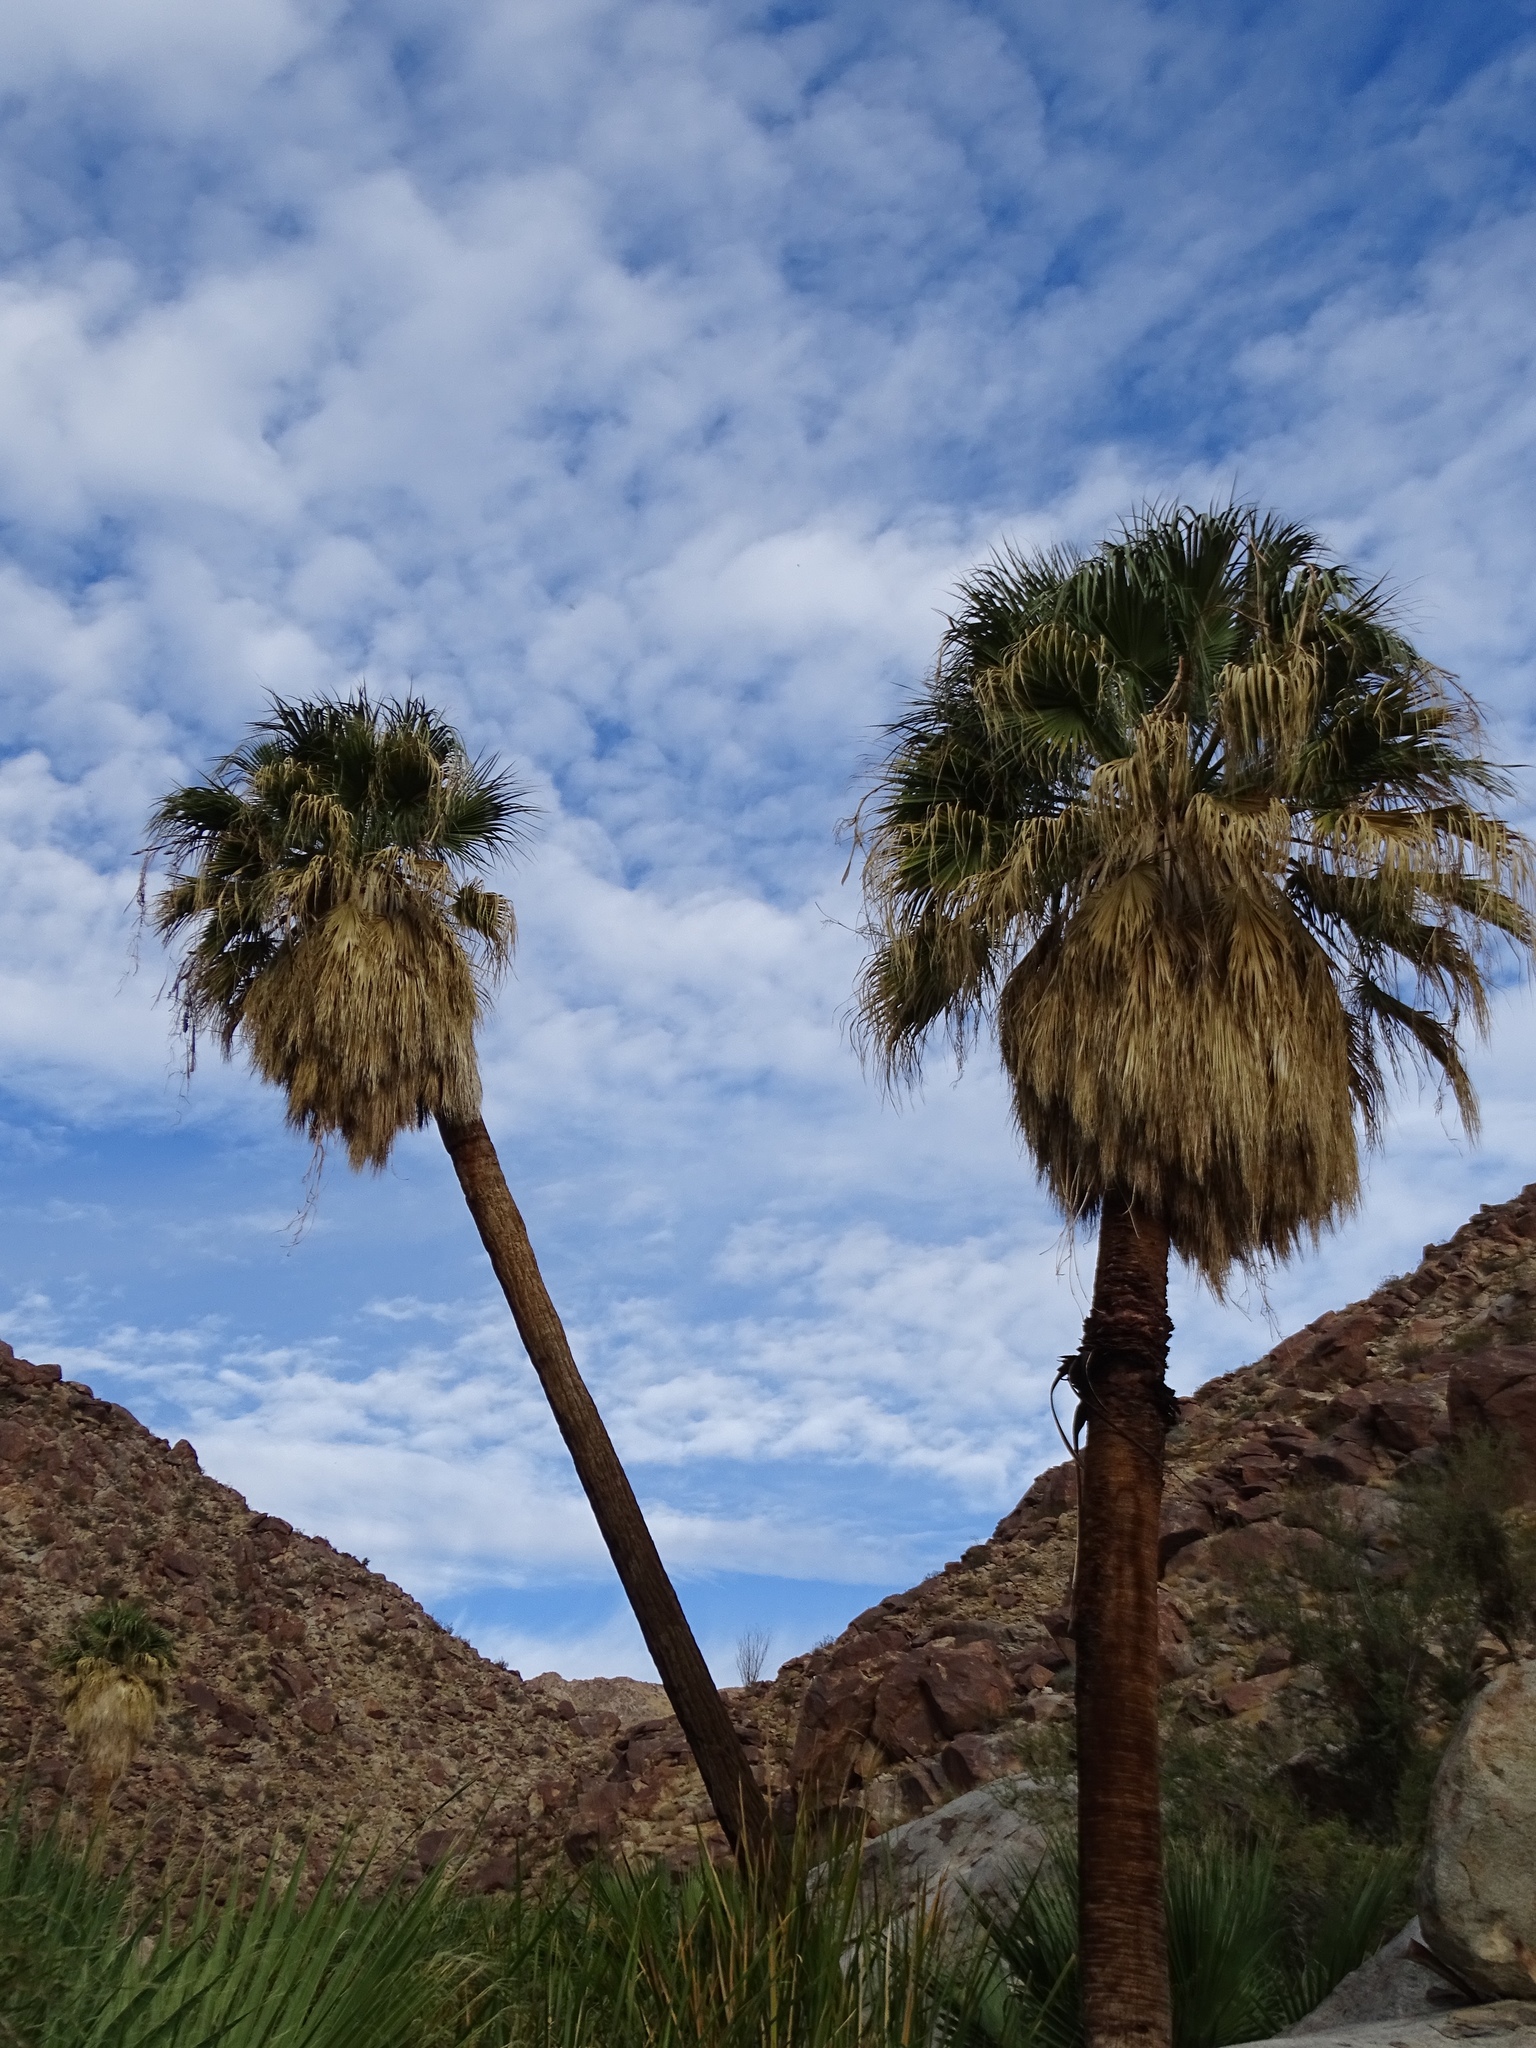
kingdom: Plantae
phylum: Tracheophyta
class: Liliopsida
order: Arecales
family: Arecaceae
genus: Washingtonia
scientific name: Washingtonia filifera
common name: California fan palm
